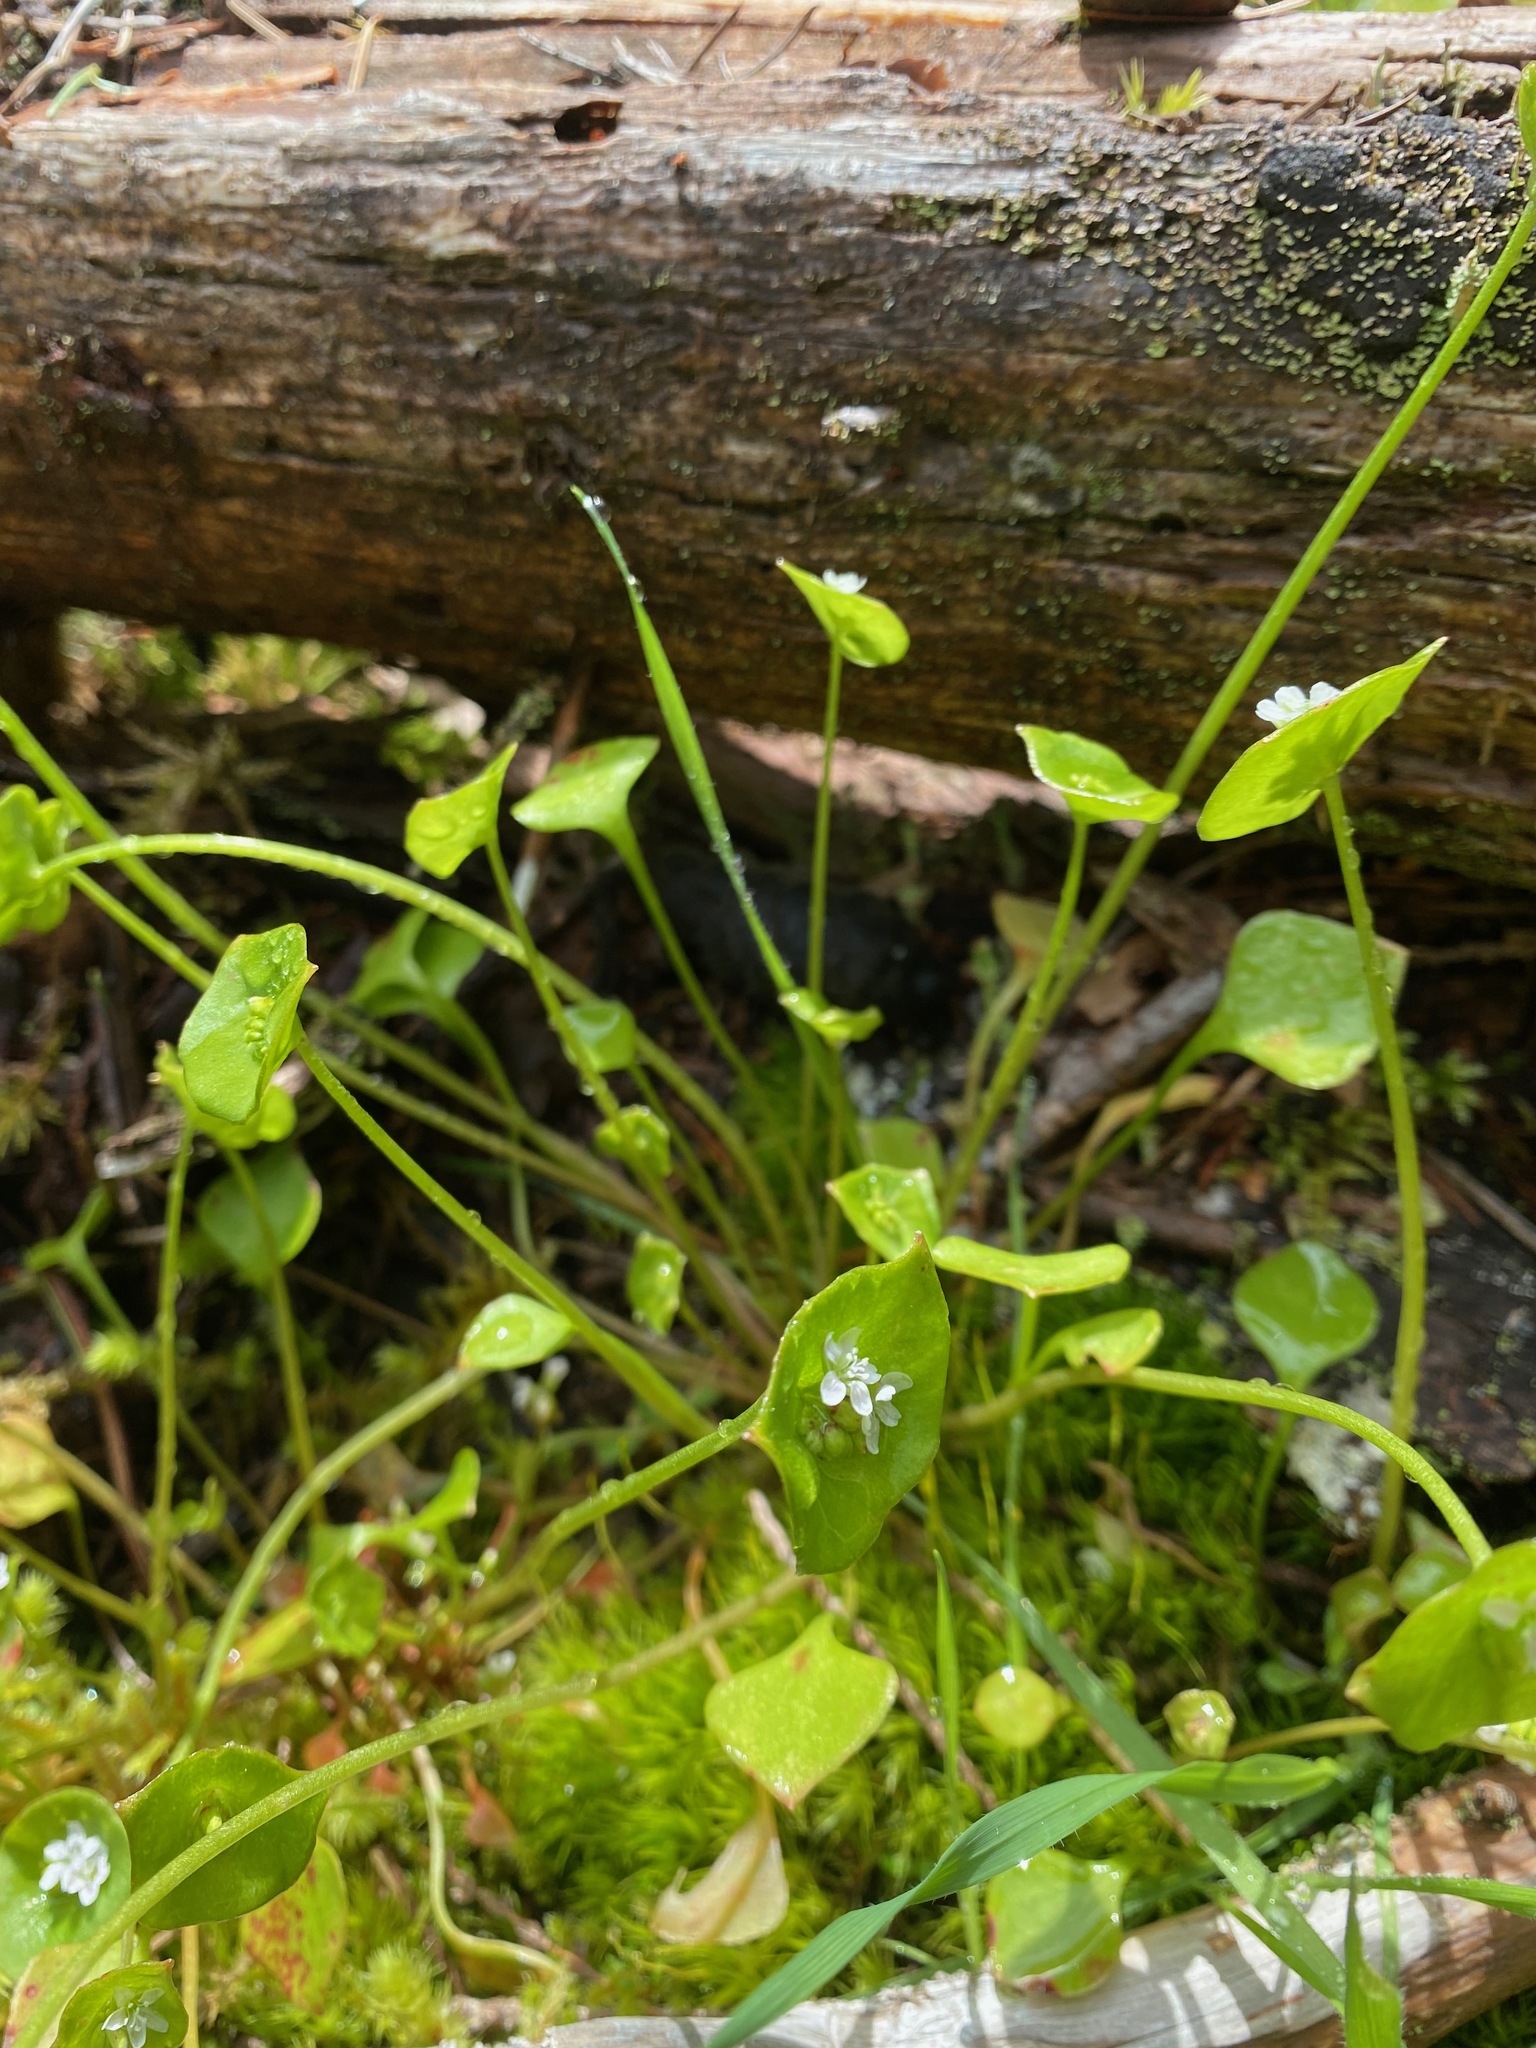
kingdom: Plantae
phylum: Tracheophyta
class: Magnoliopsida
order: Caryophyllales
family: Montiaceae
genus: Claytonia
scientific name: Claytonia perfoliata
